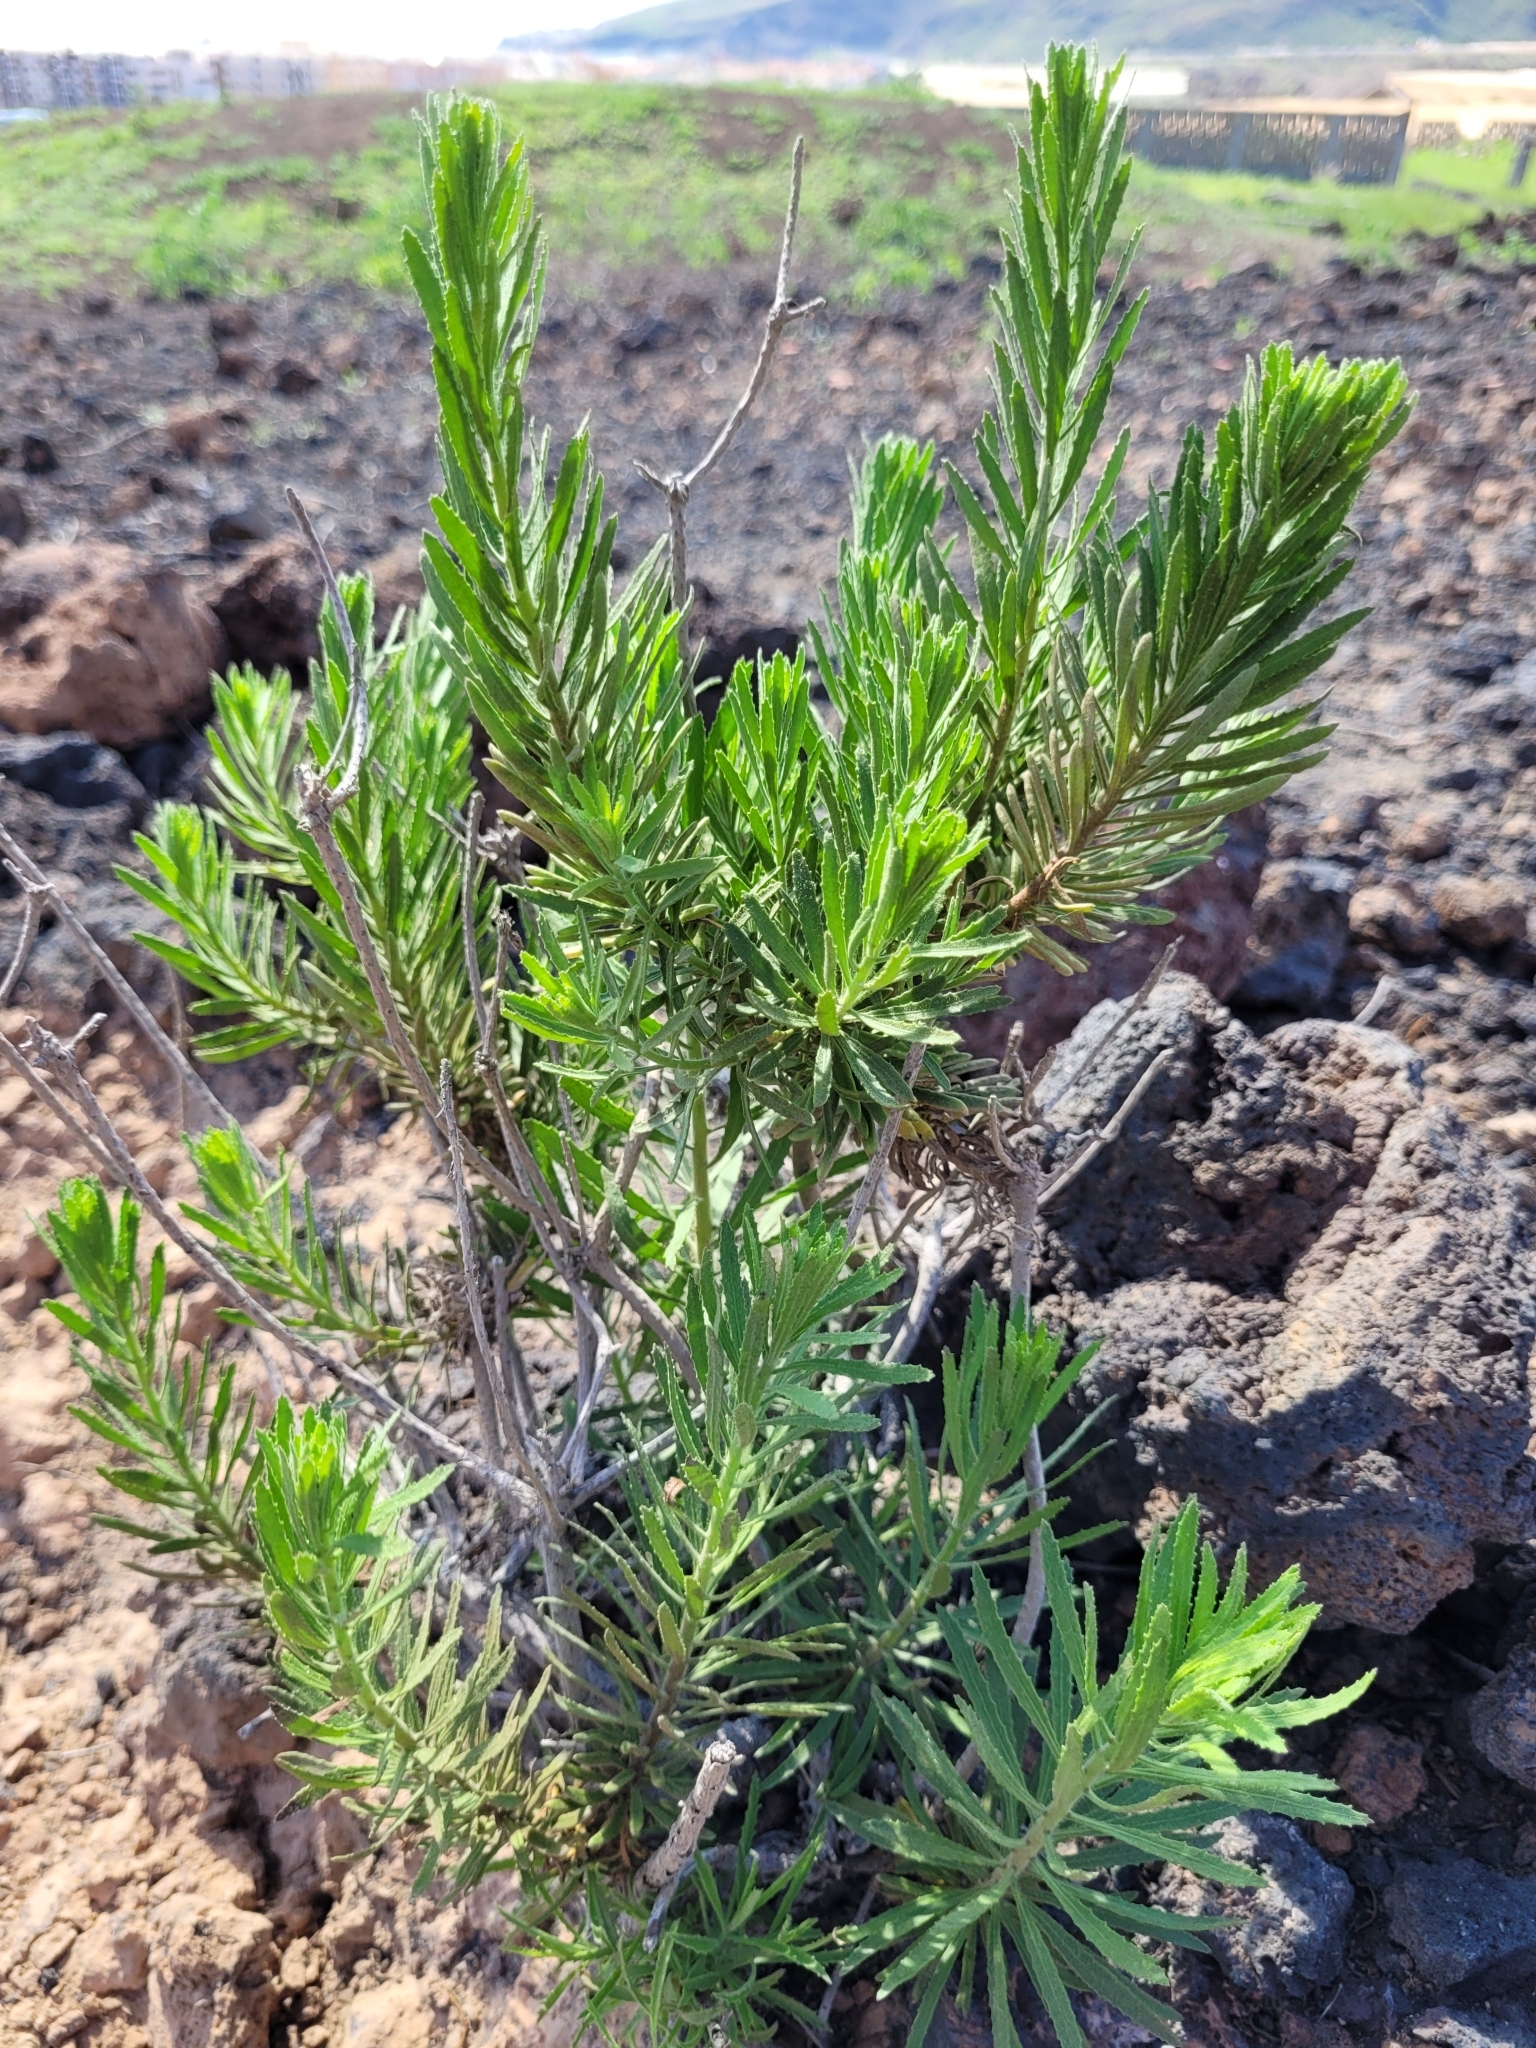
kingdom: Plantae
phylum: Tracheophyta
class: Magnoliopsida
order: Asterales
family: Asteraceae
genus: Allagopappus
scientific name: Allagopappus canariensis
